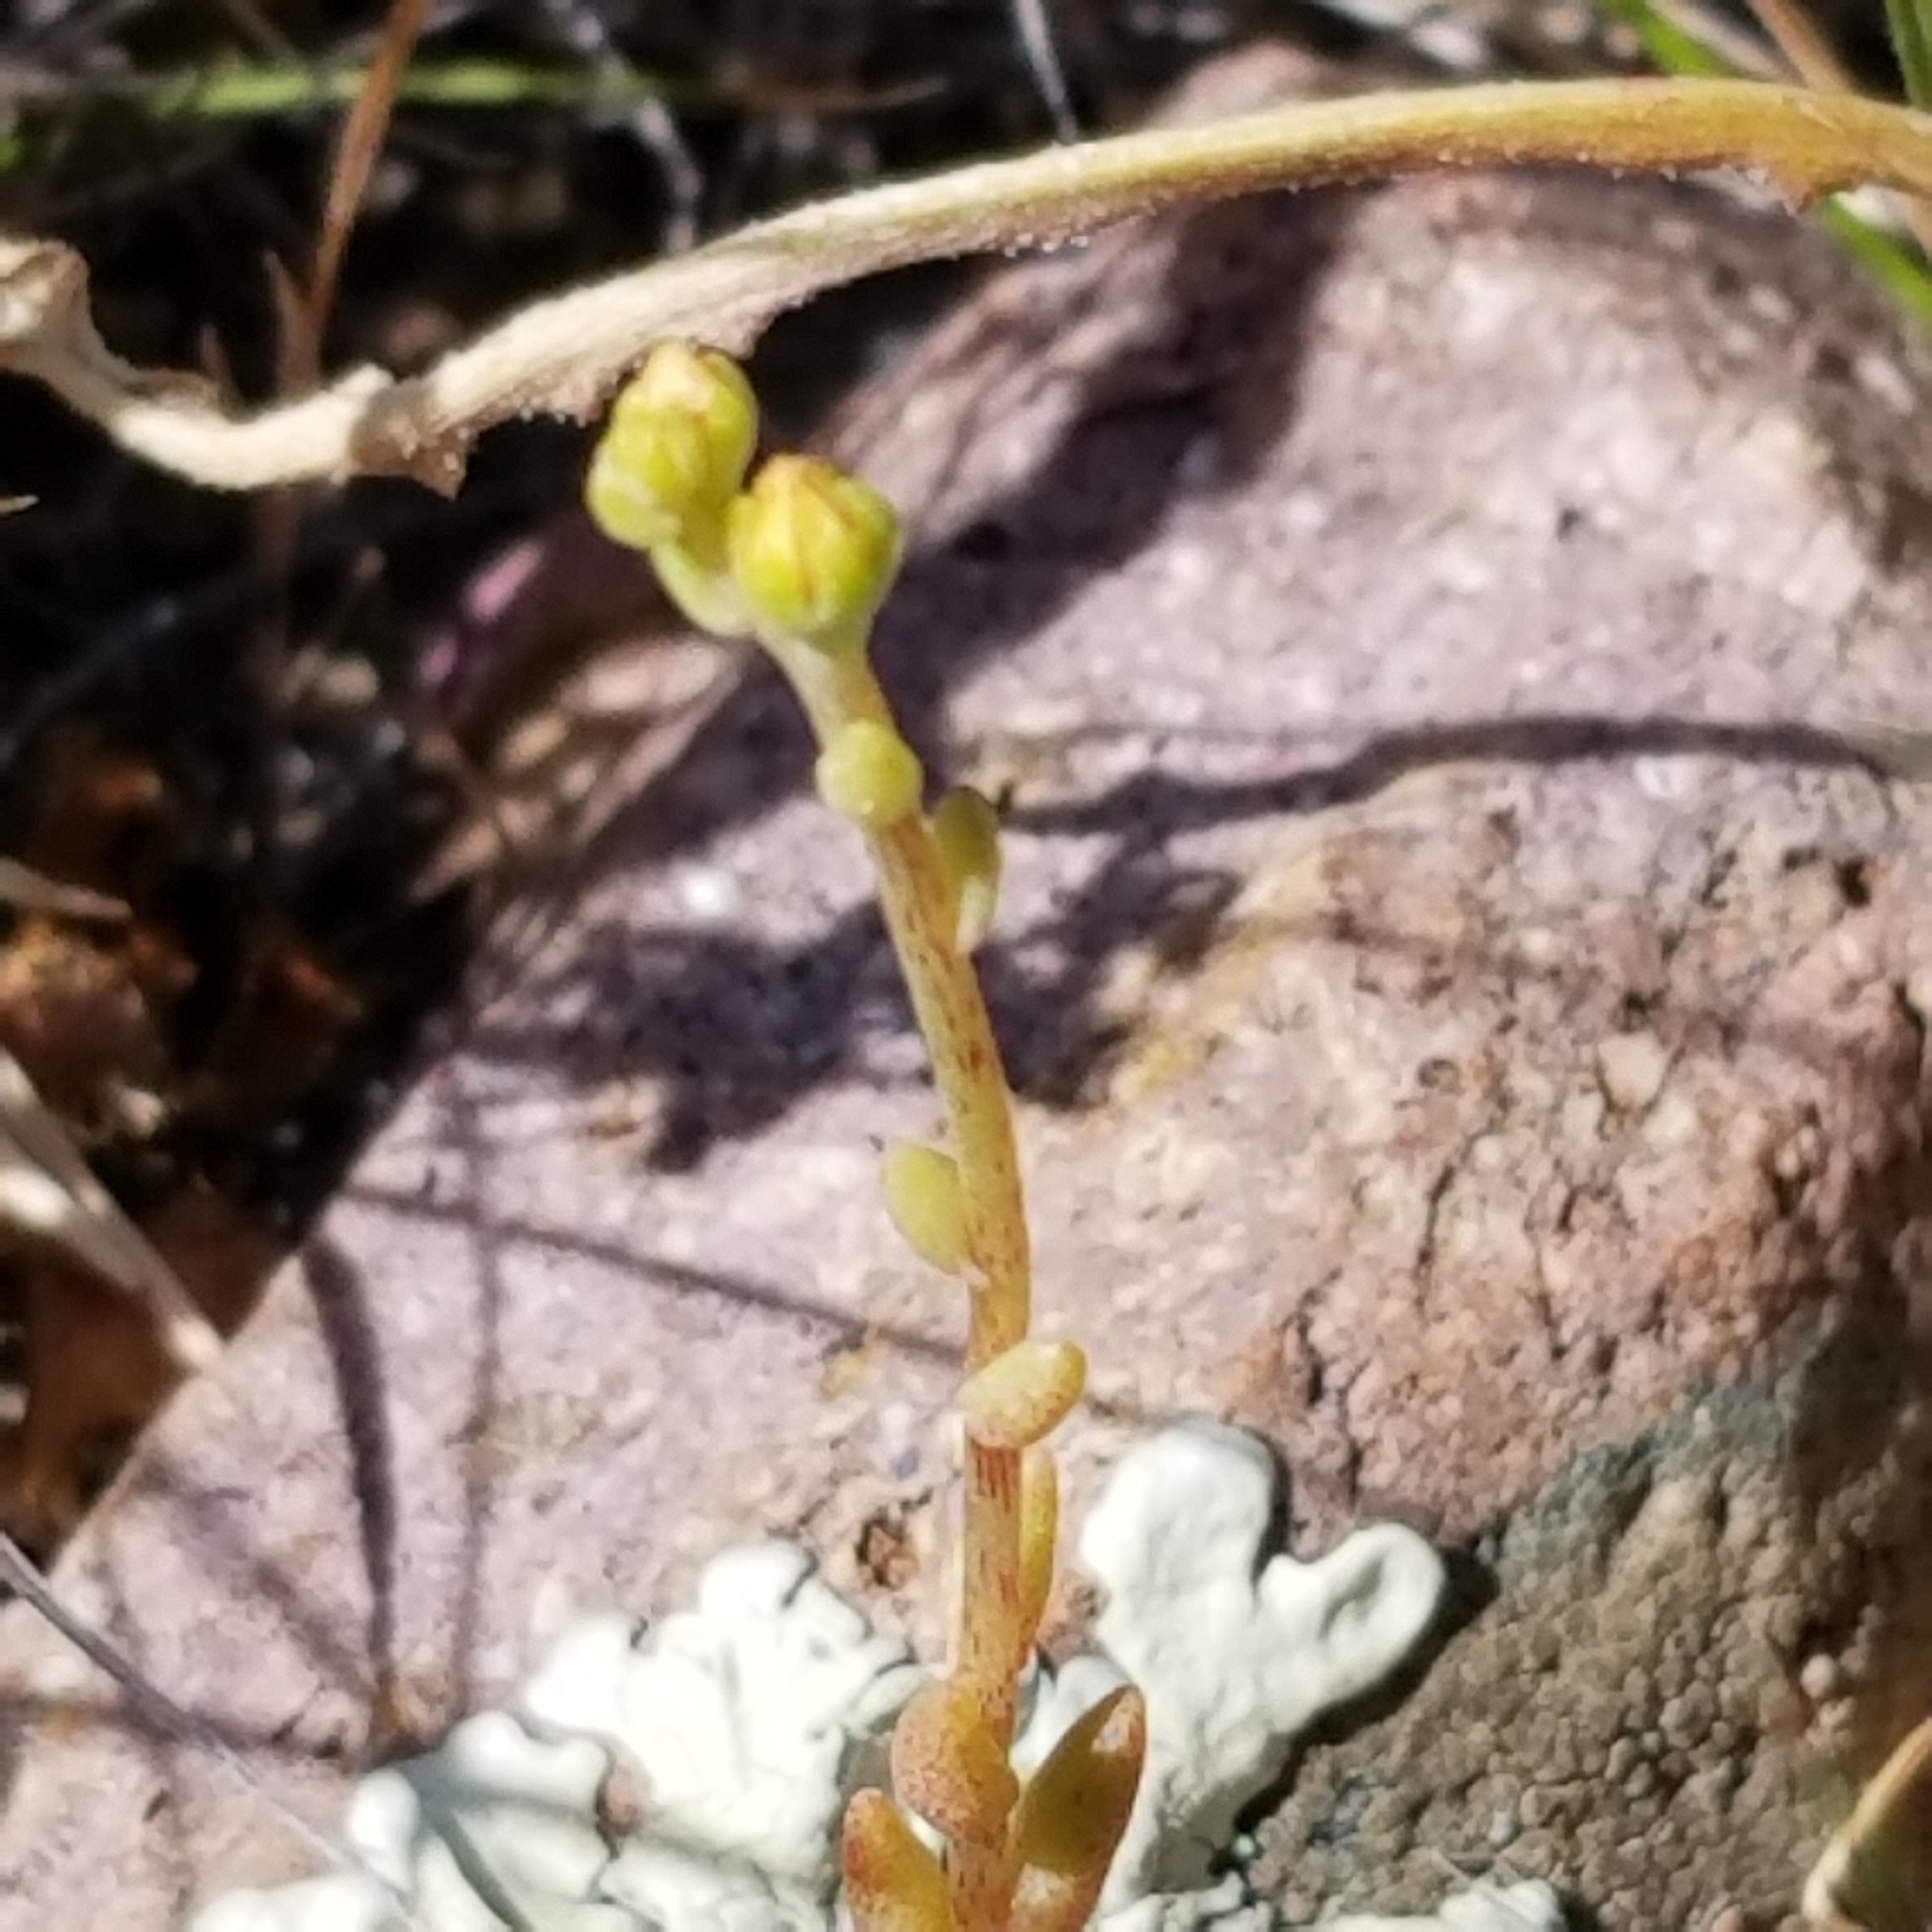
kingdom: Plantae
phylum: Tracheophyta
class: Magnoliopsida
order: Saxifragales
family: Crassulaceae
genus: Dudleya
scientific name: Dudleya variegata
